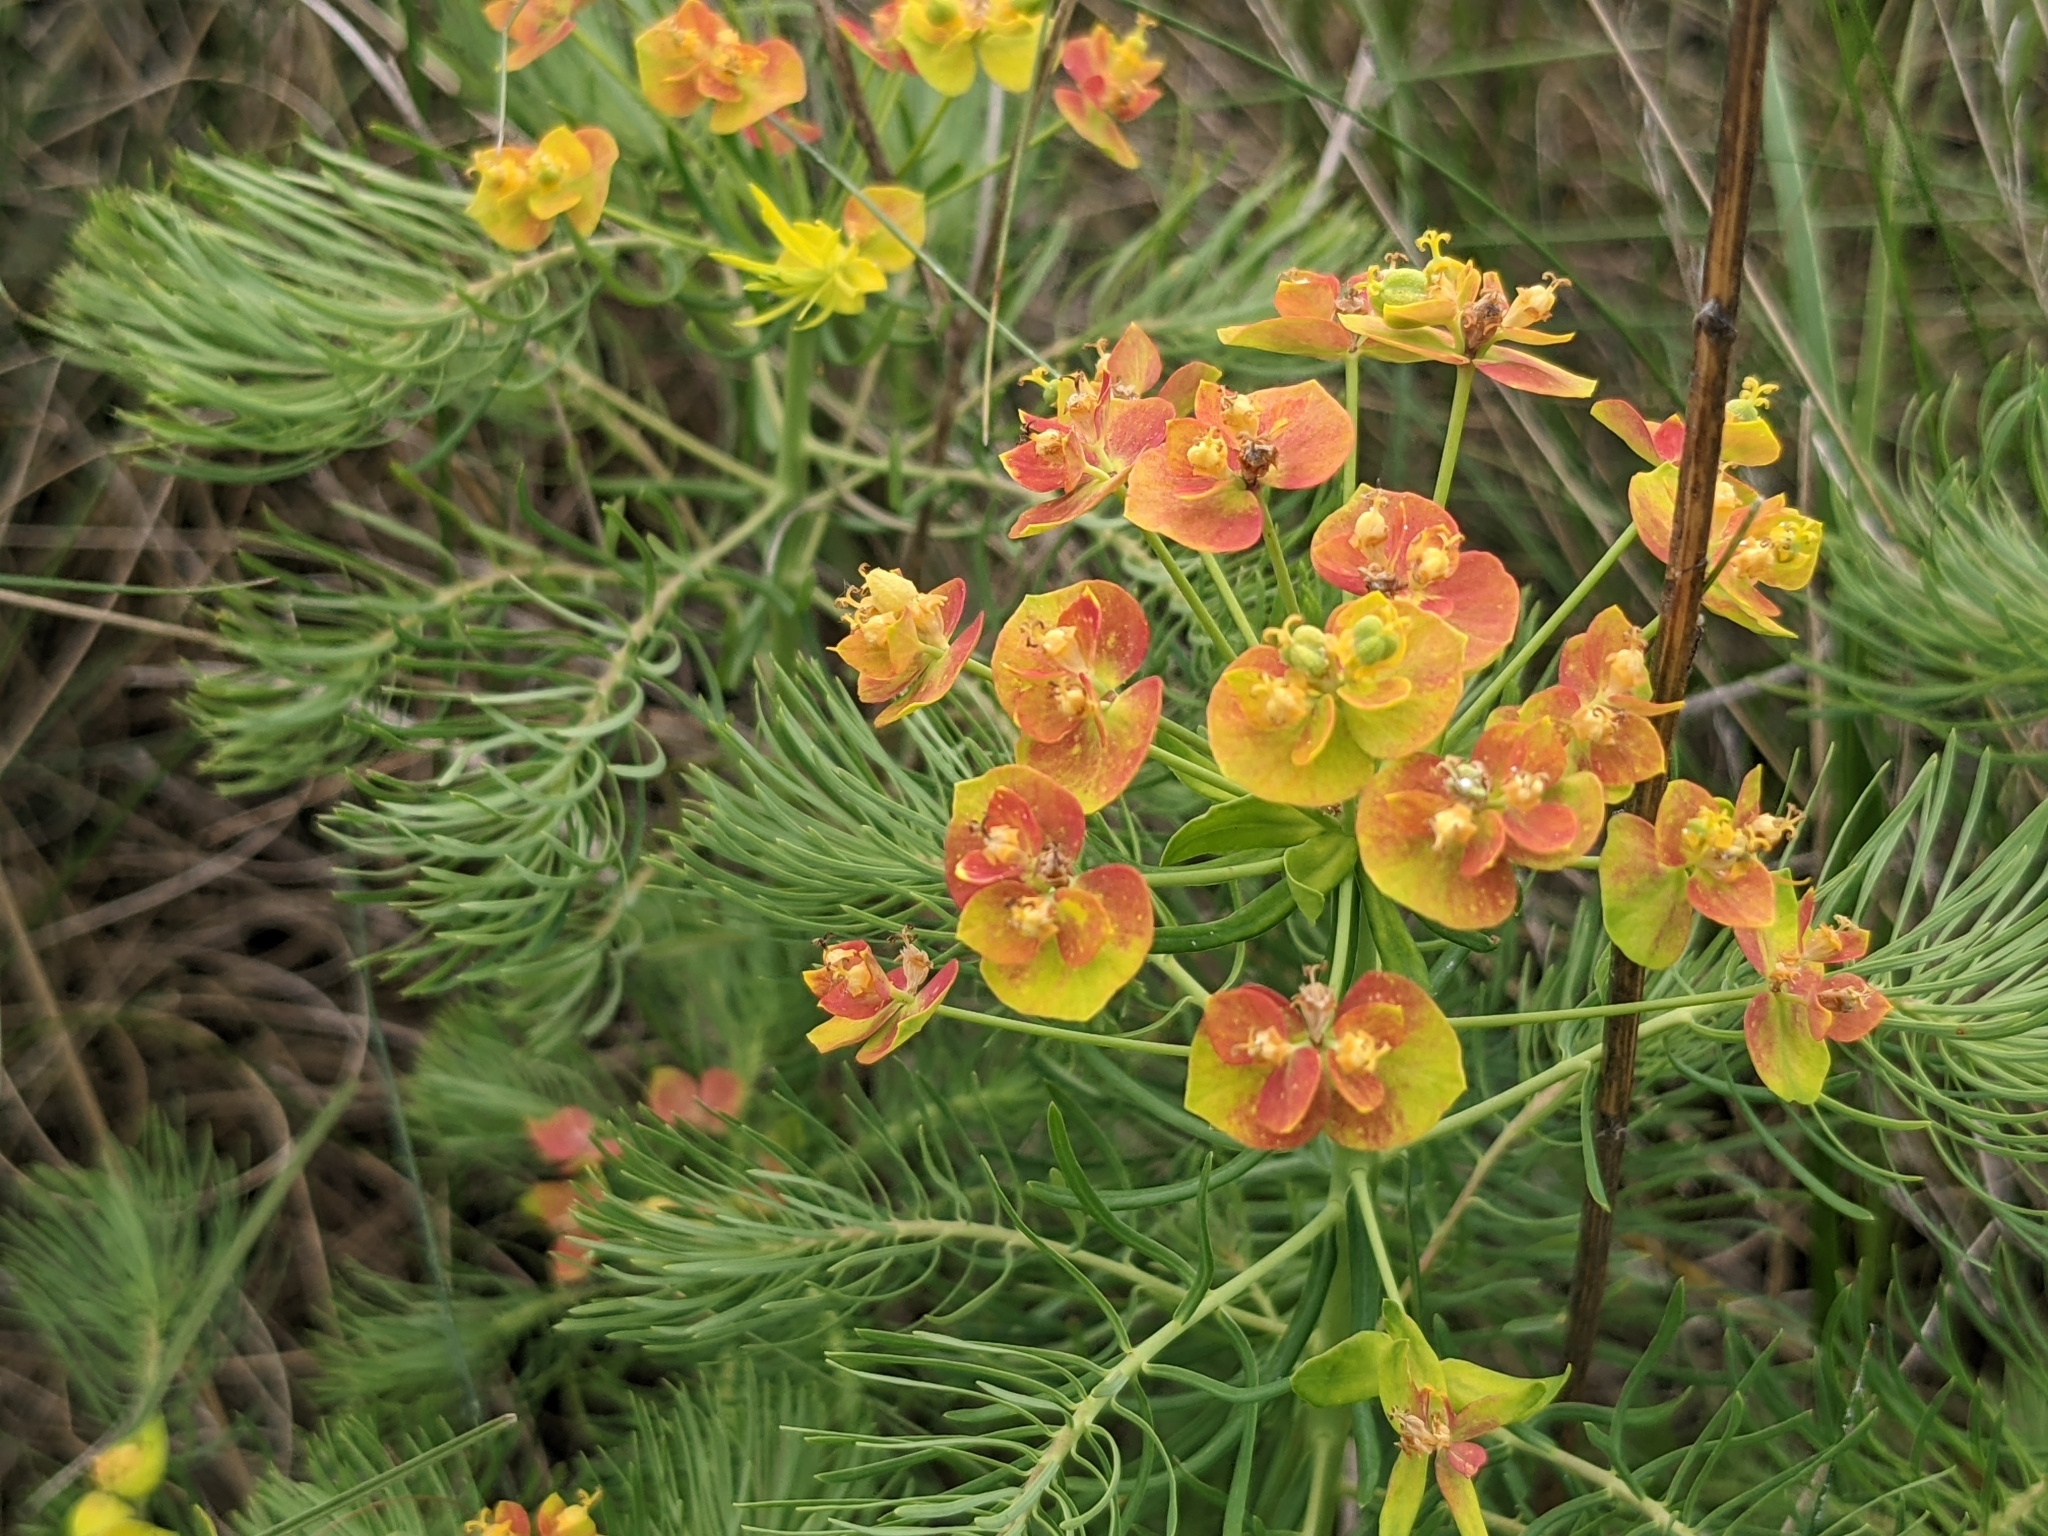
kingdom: Plantae
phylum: Tracheophyta
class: Magnoliopsida
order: Malpighiales
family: Euphorbiaceae
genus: Euphorbia
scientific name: Euphorbia cyparissias
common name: Cypress spurge
